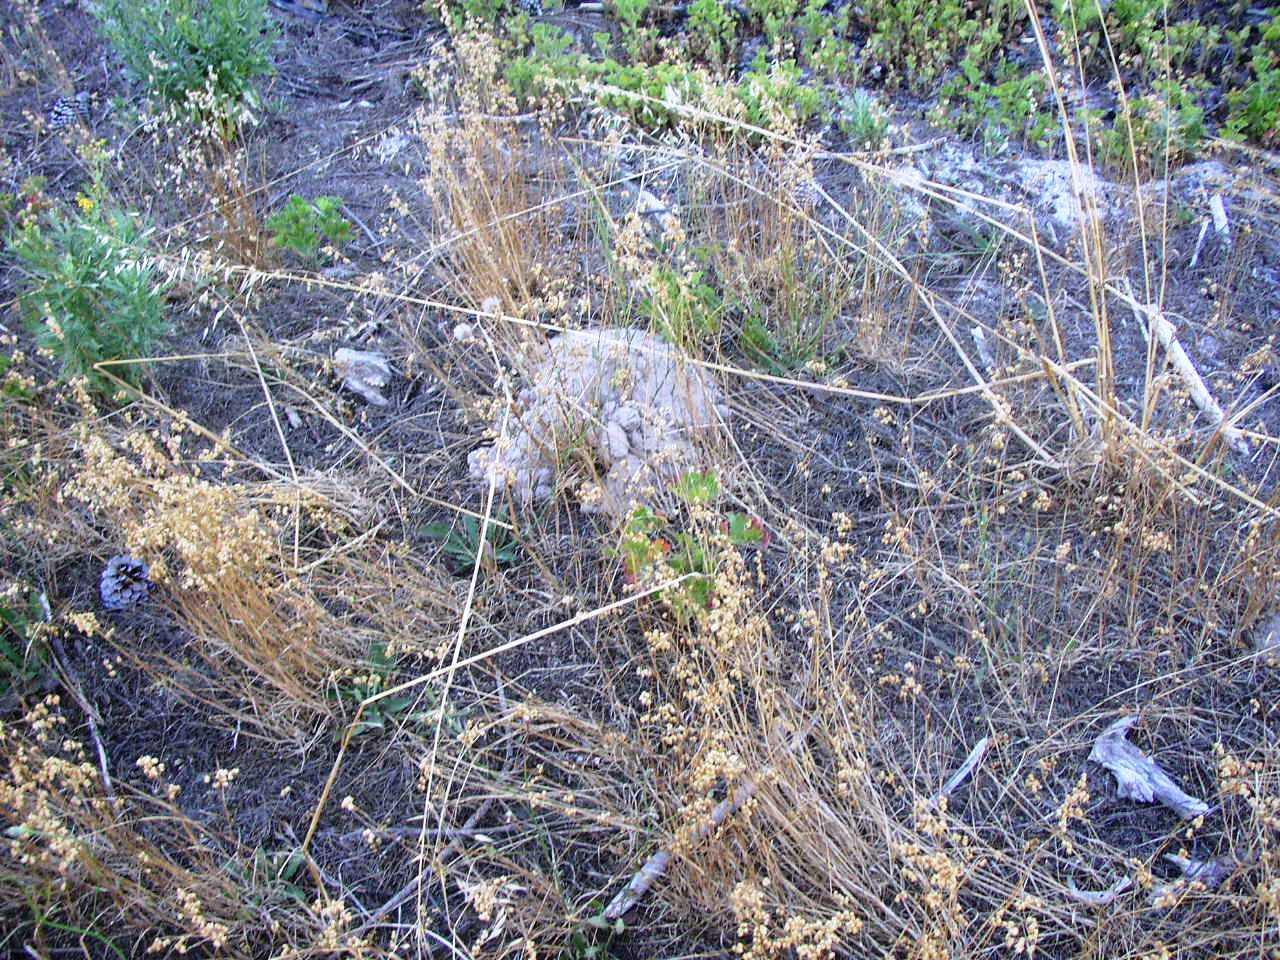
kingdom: Animalia
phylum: Chordata
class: Mammalia
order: Rodentia
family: Bathyergidae
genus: Bathyergus
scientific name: Bathyergus suillus
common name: Cape dune mole rat
